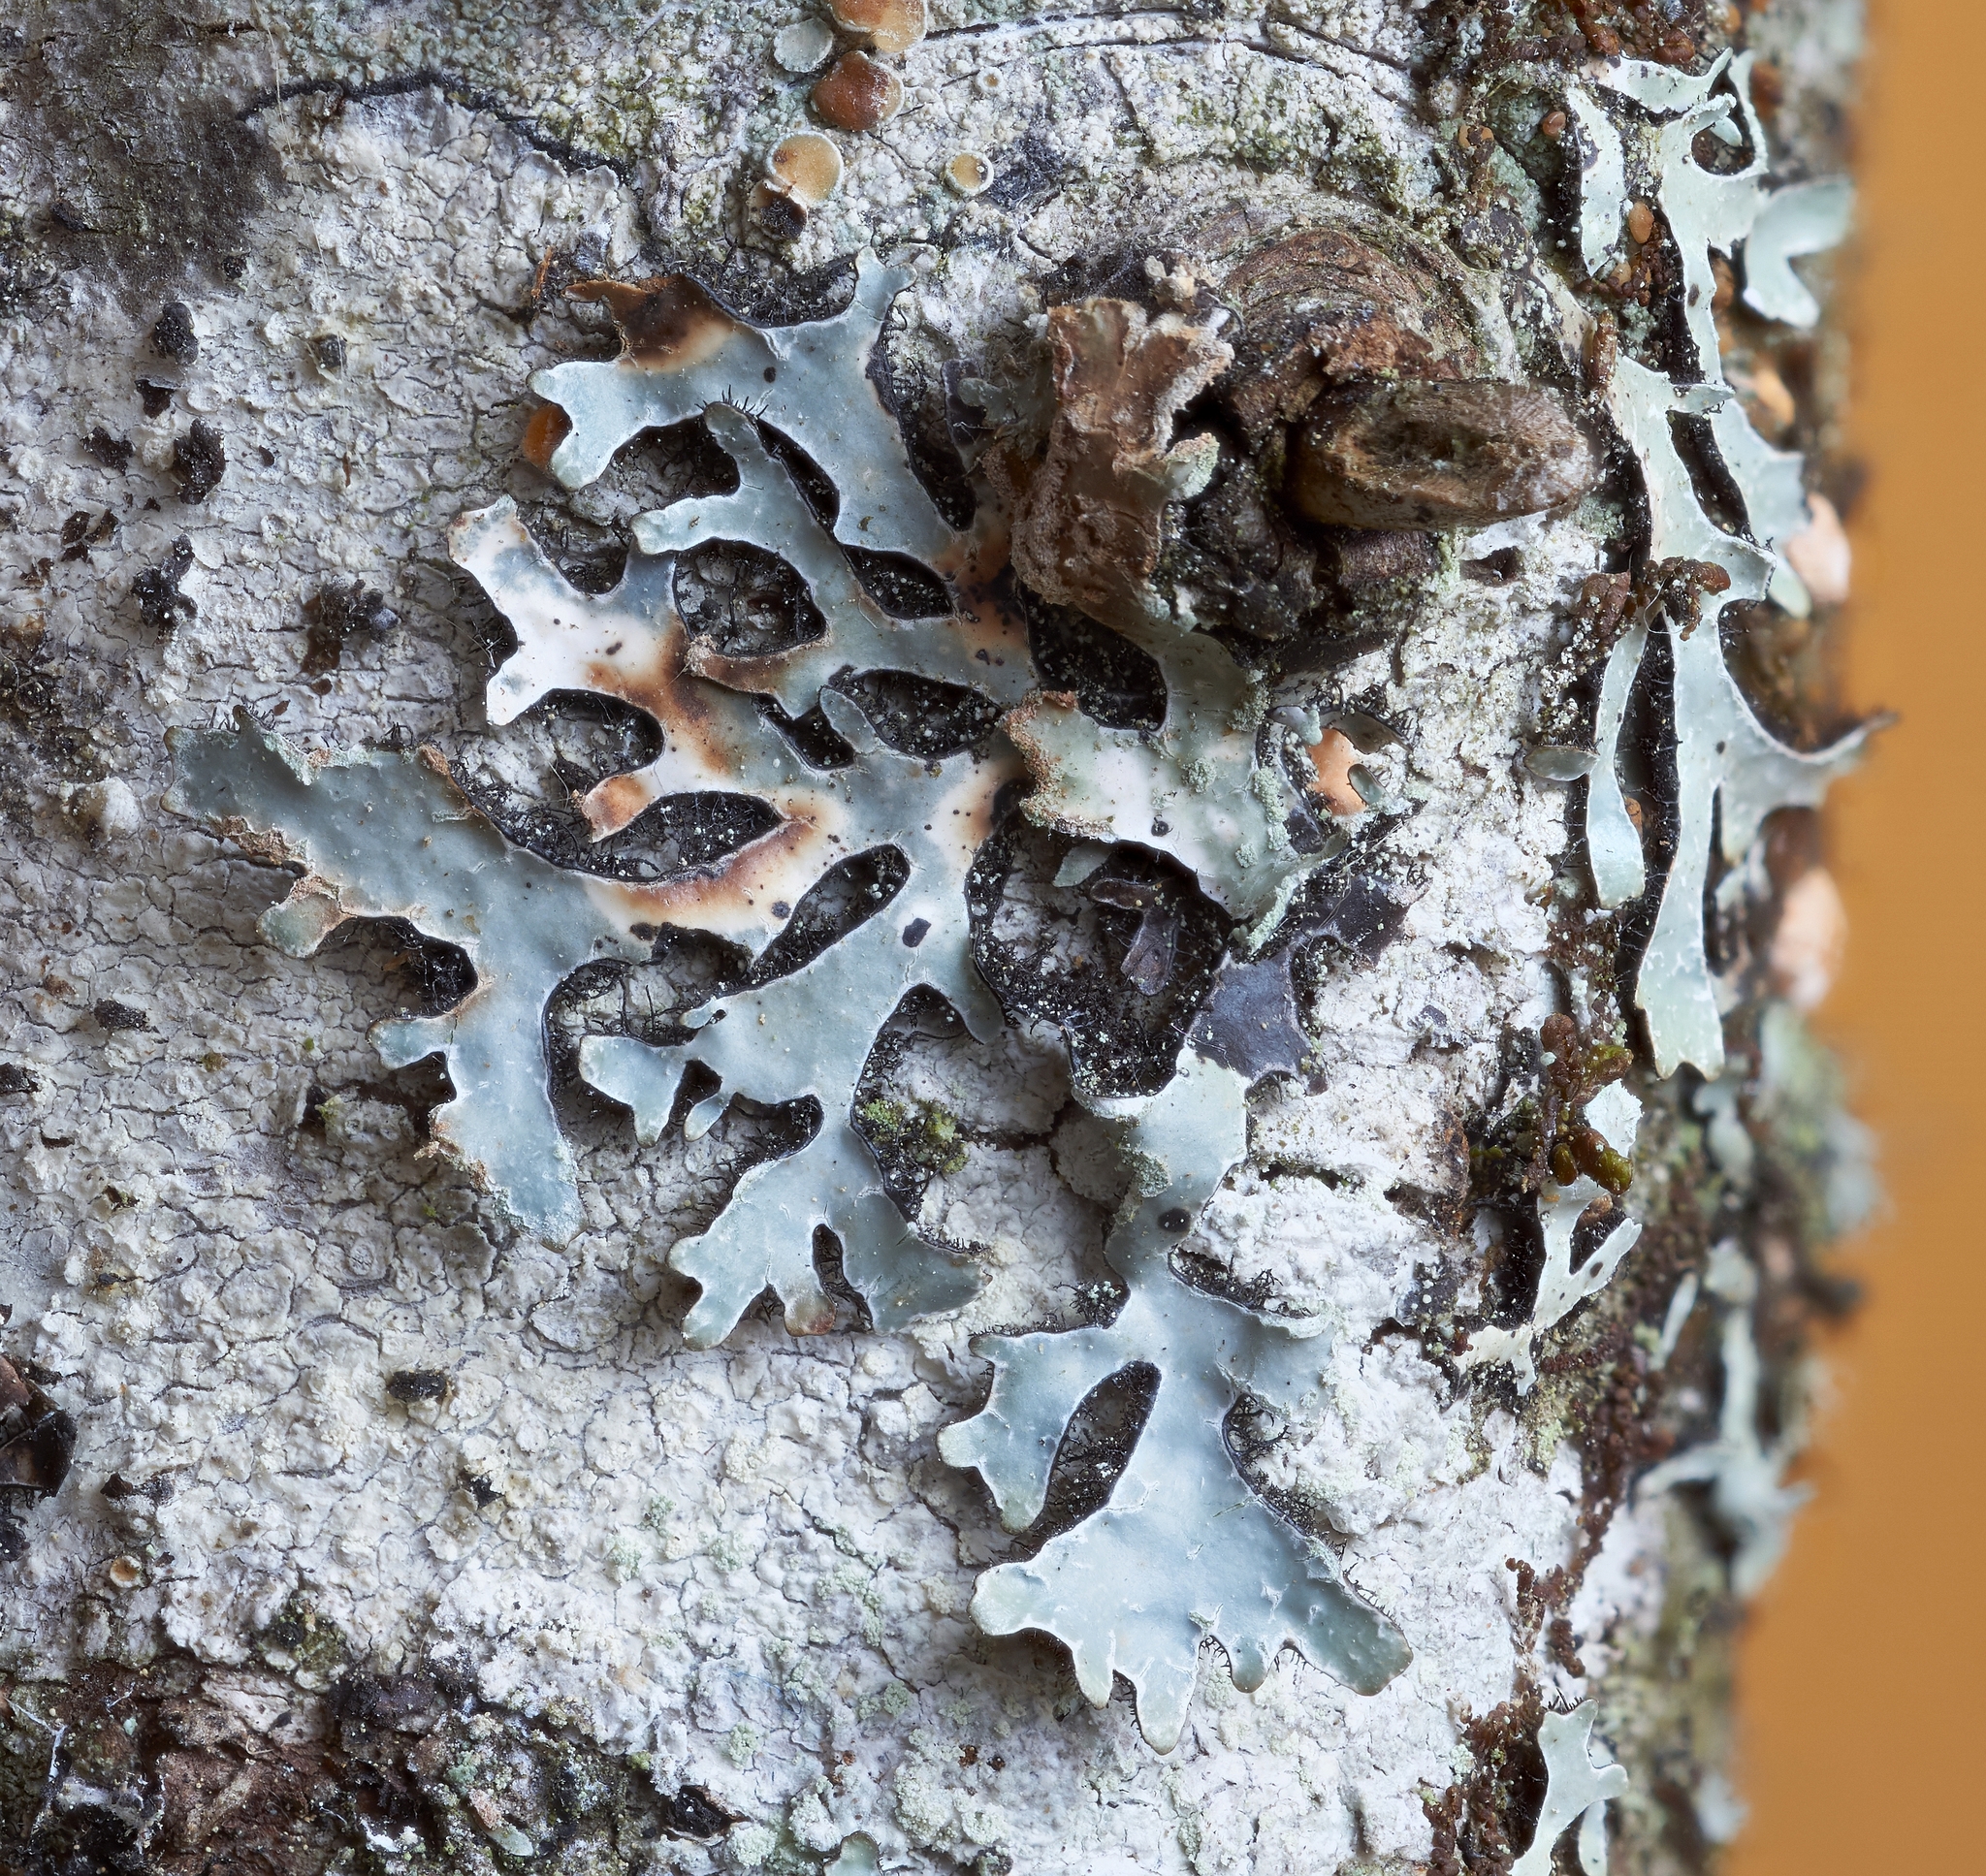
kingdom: Fungi
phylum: Ascomycota
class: Lecanoromycetes
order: Lecanorales
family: Parmeliaceae
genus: Parmelia
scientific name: Parmelia sulcata
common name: Netted shield lichen
